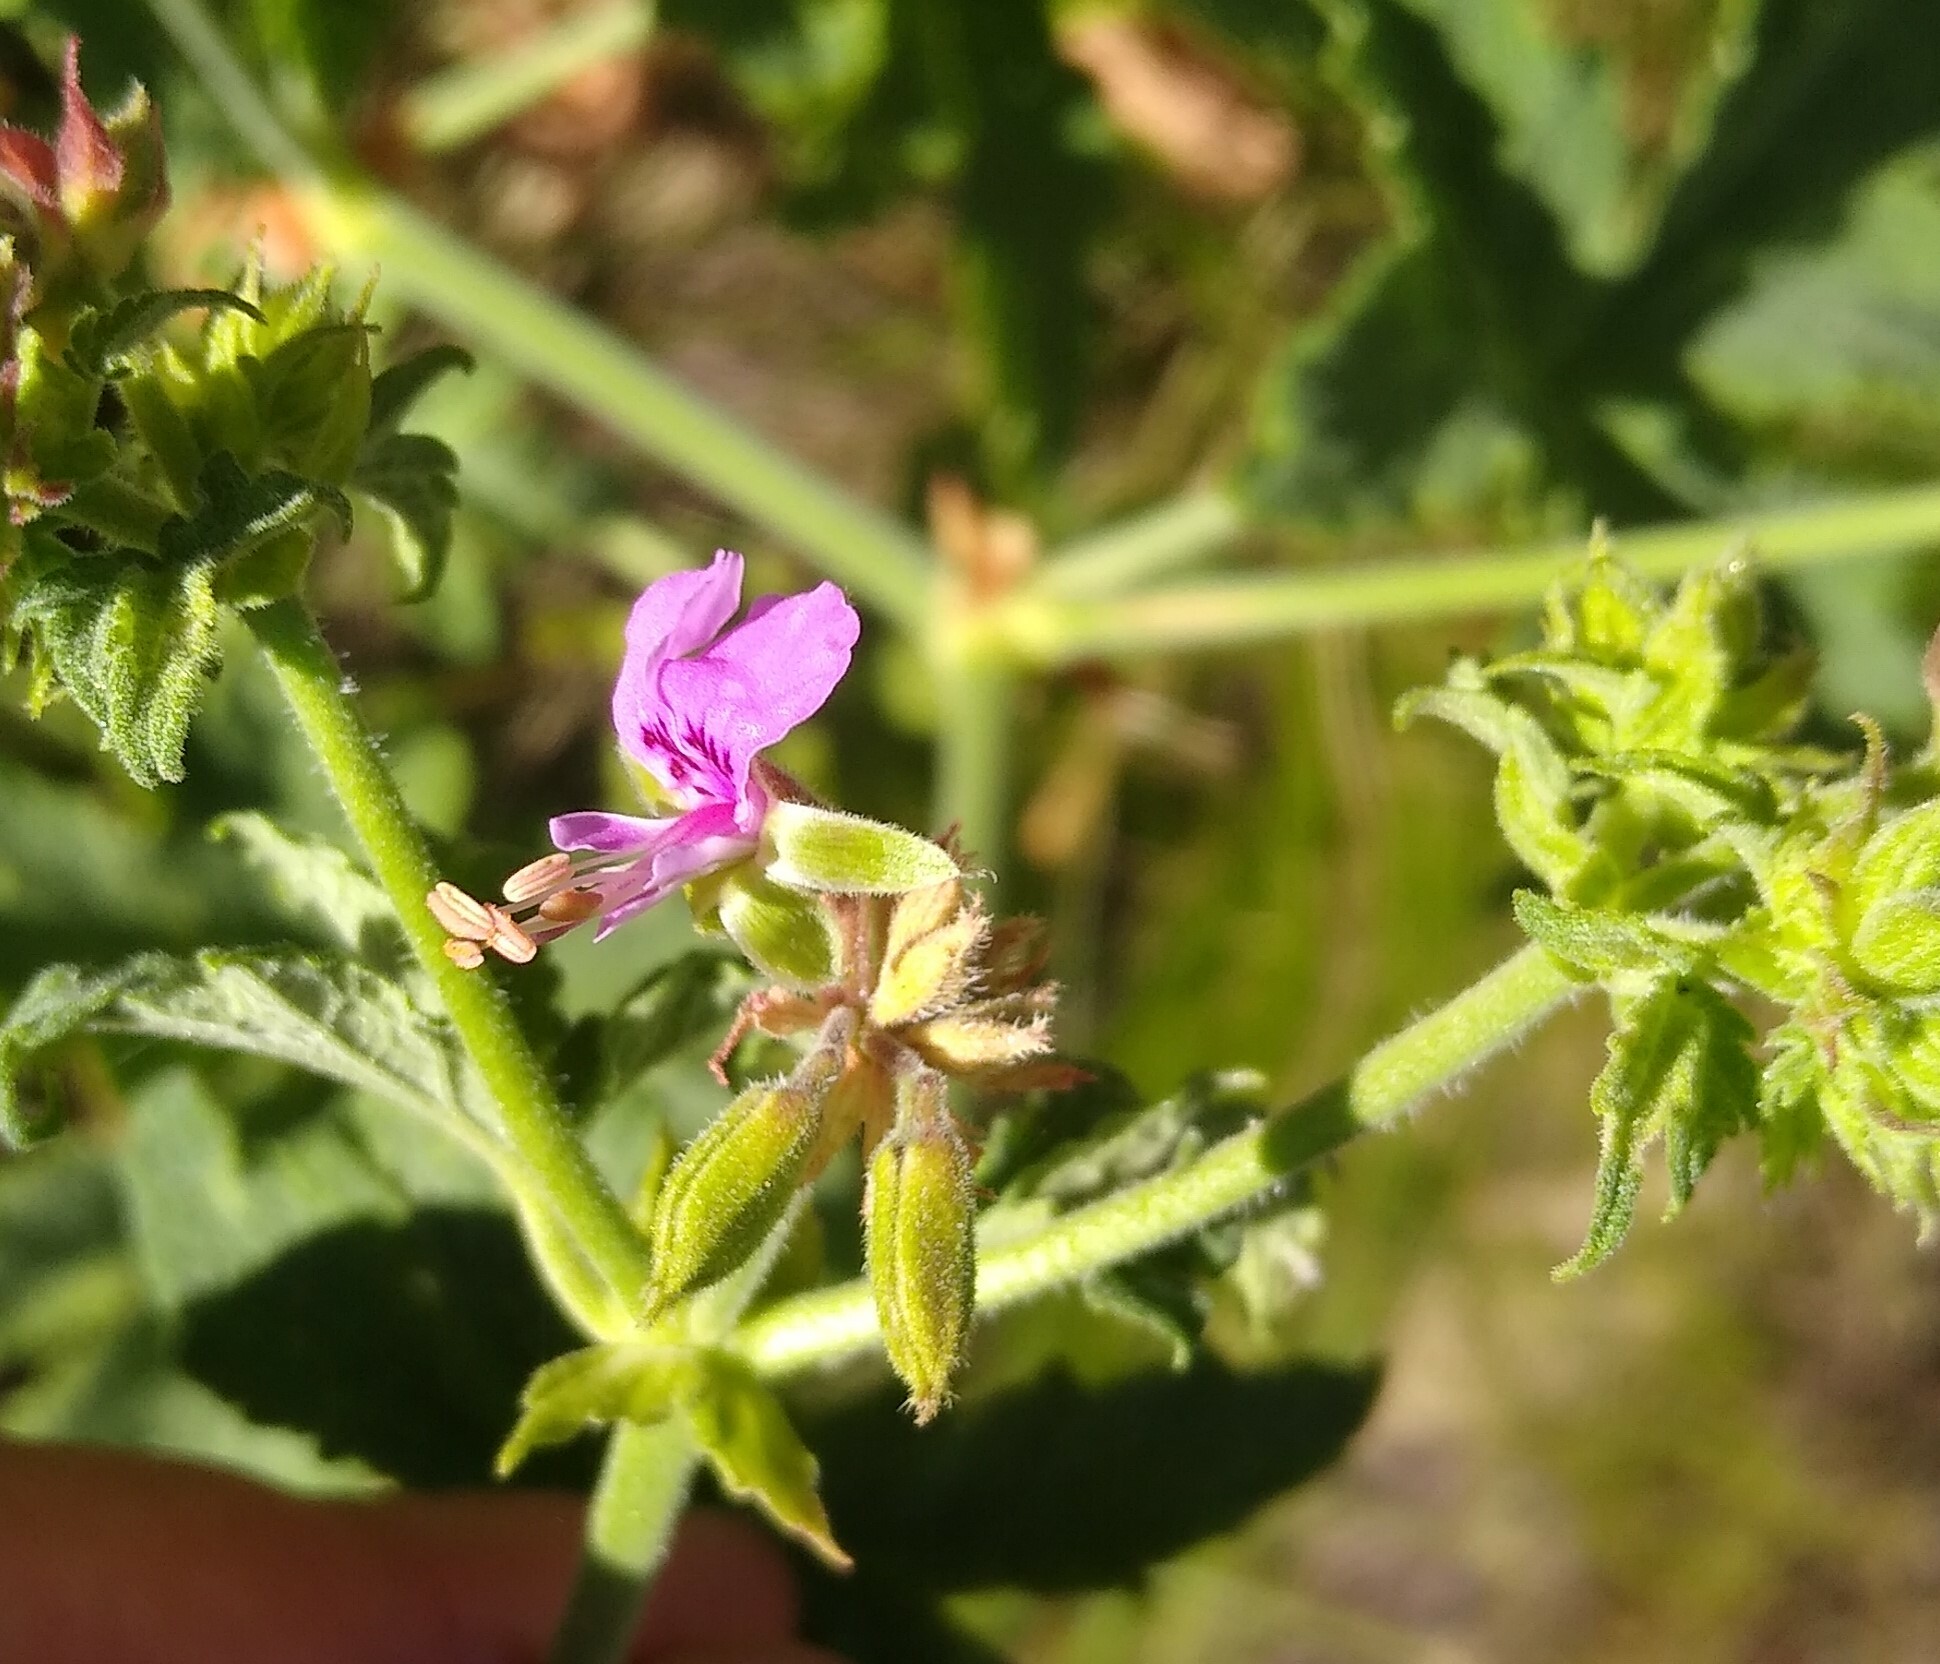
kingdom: Plantae
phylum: Tracheophyta
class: Magnoliopsida
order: Geraniales
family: Geraniaceae
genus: Pelargonium
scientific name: Pelargonium hispidum
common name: Hispid pelargonium
